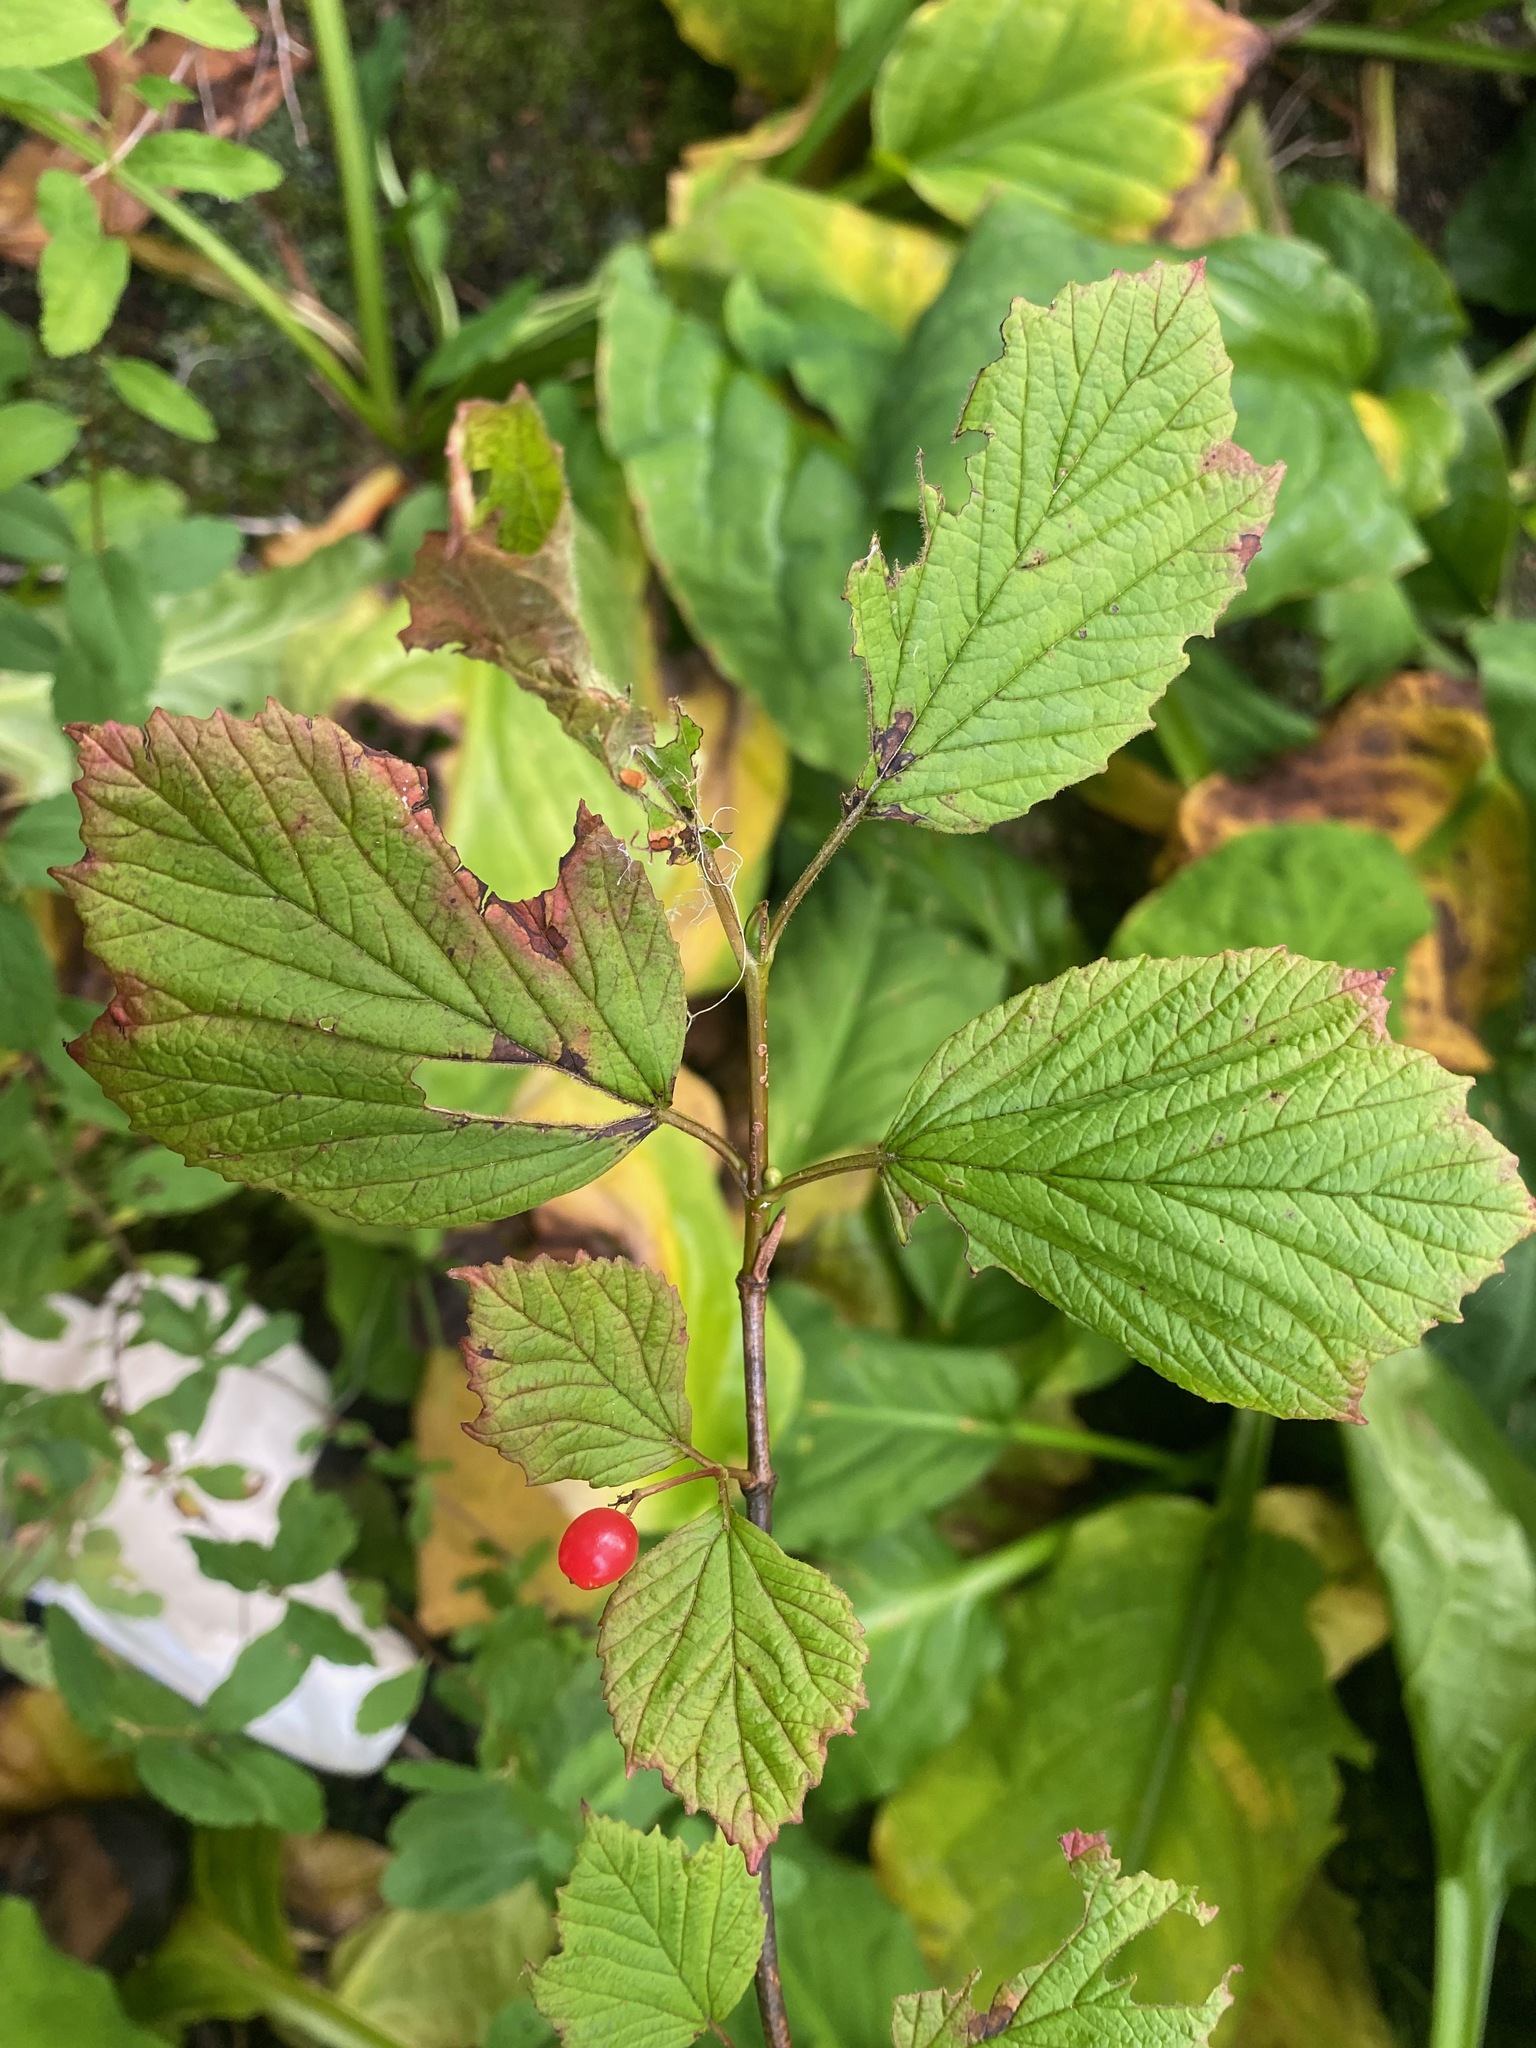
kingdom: Plantae
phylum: Tracheophyta
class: Magnoliopsida
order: Dipsacales
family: Viburnaceae
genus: Viburnum
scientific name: Viburnum edule
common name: Mooseberry
